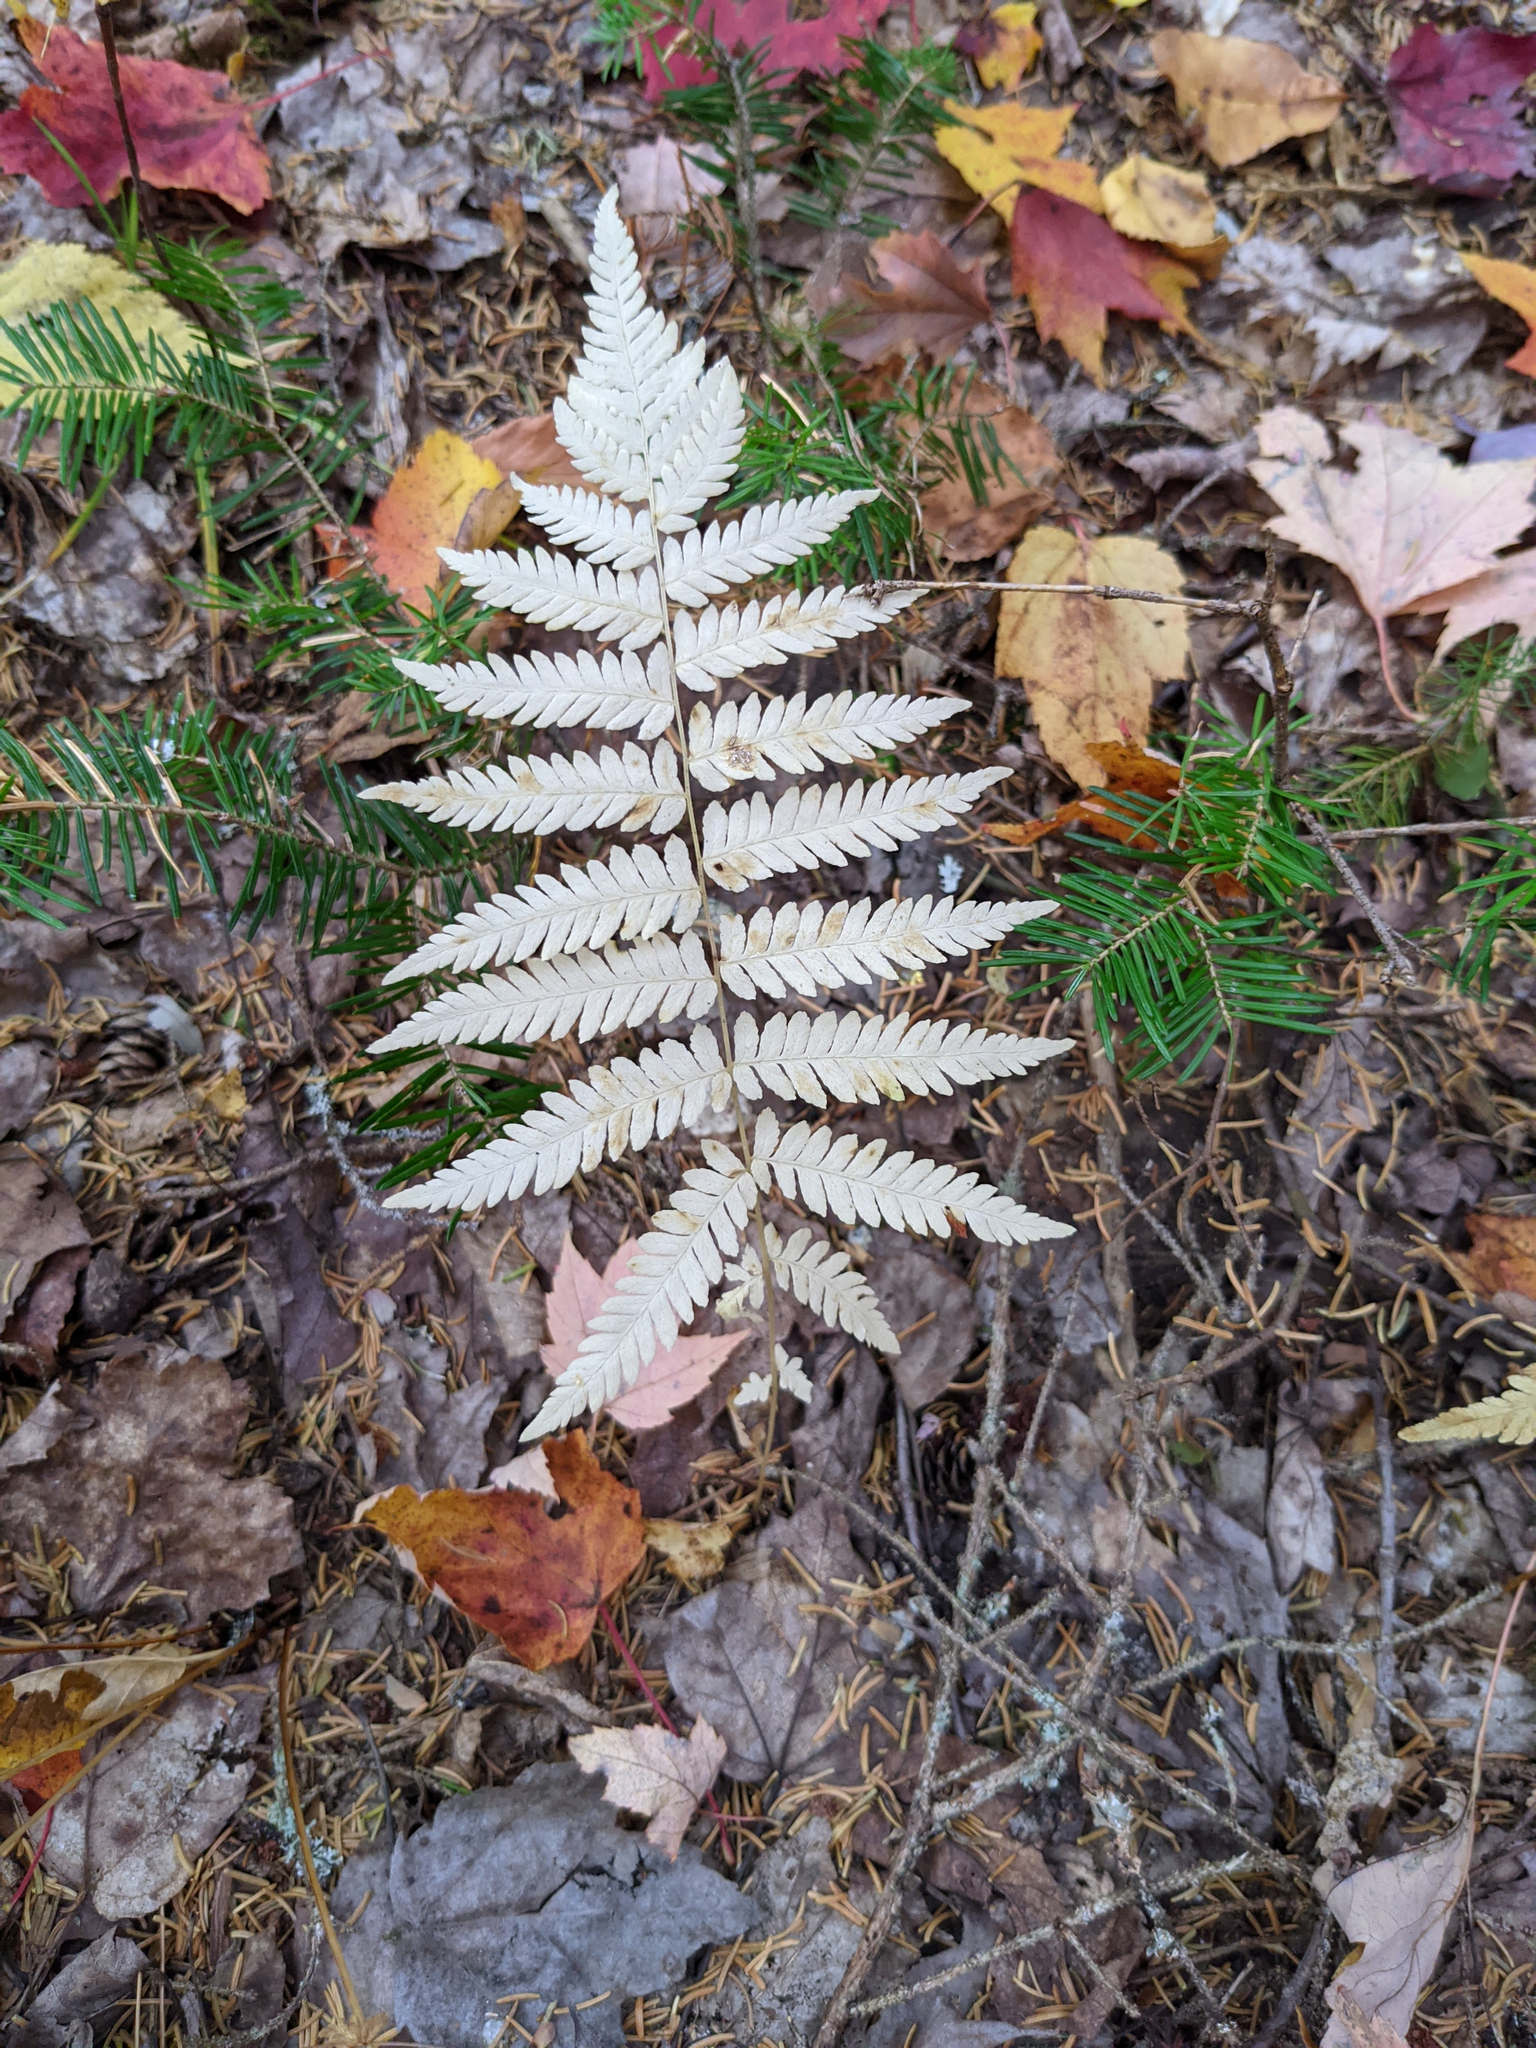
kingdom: Plantae
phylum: Tracheophyta
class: Polypodiopsida
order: Polypodiales
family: Thelypteridaceae
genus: Amauropelta
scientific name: Amauropelta noveboracensis
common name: New york fern
